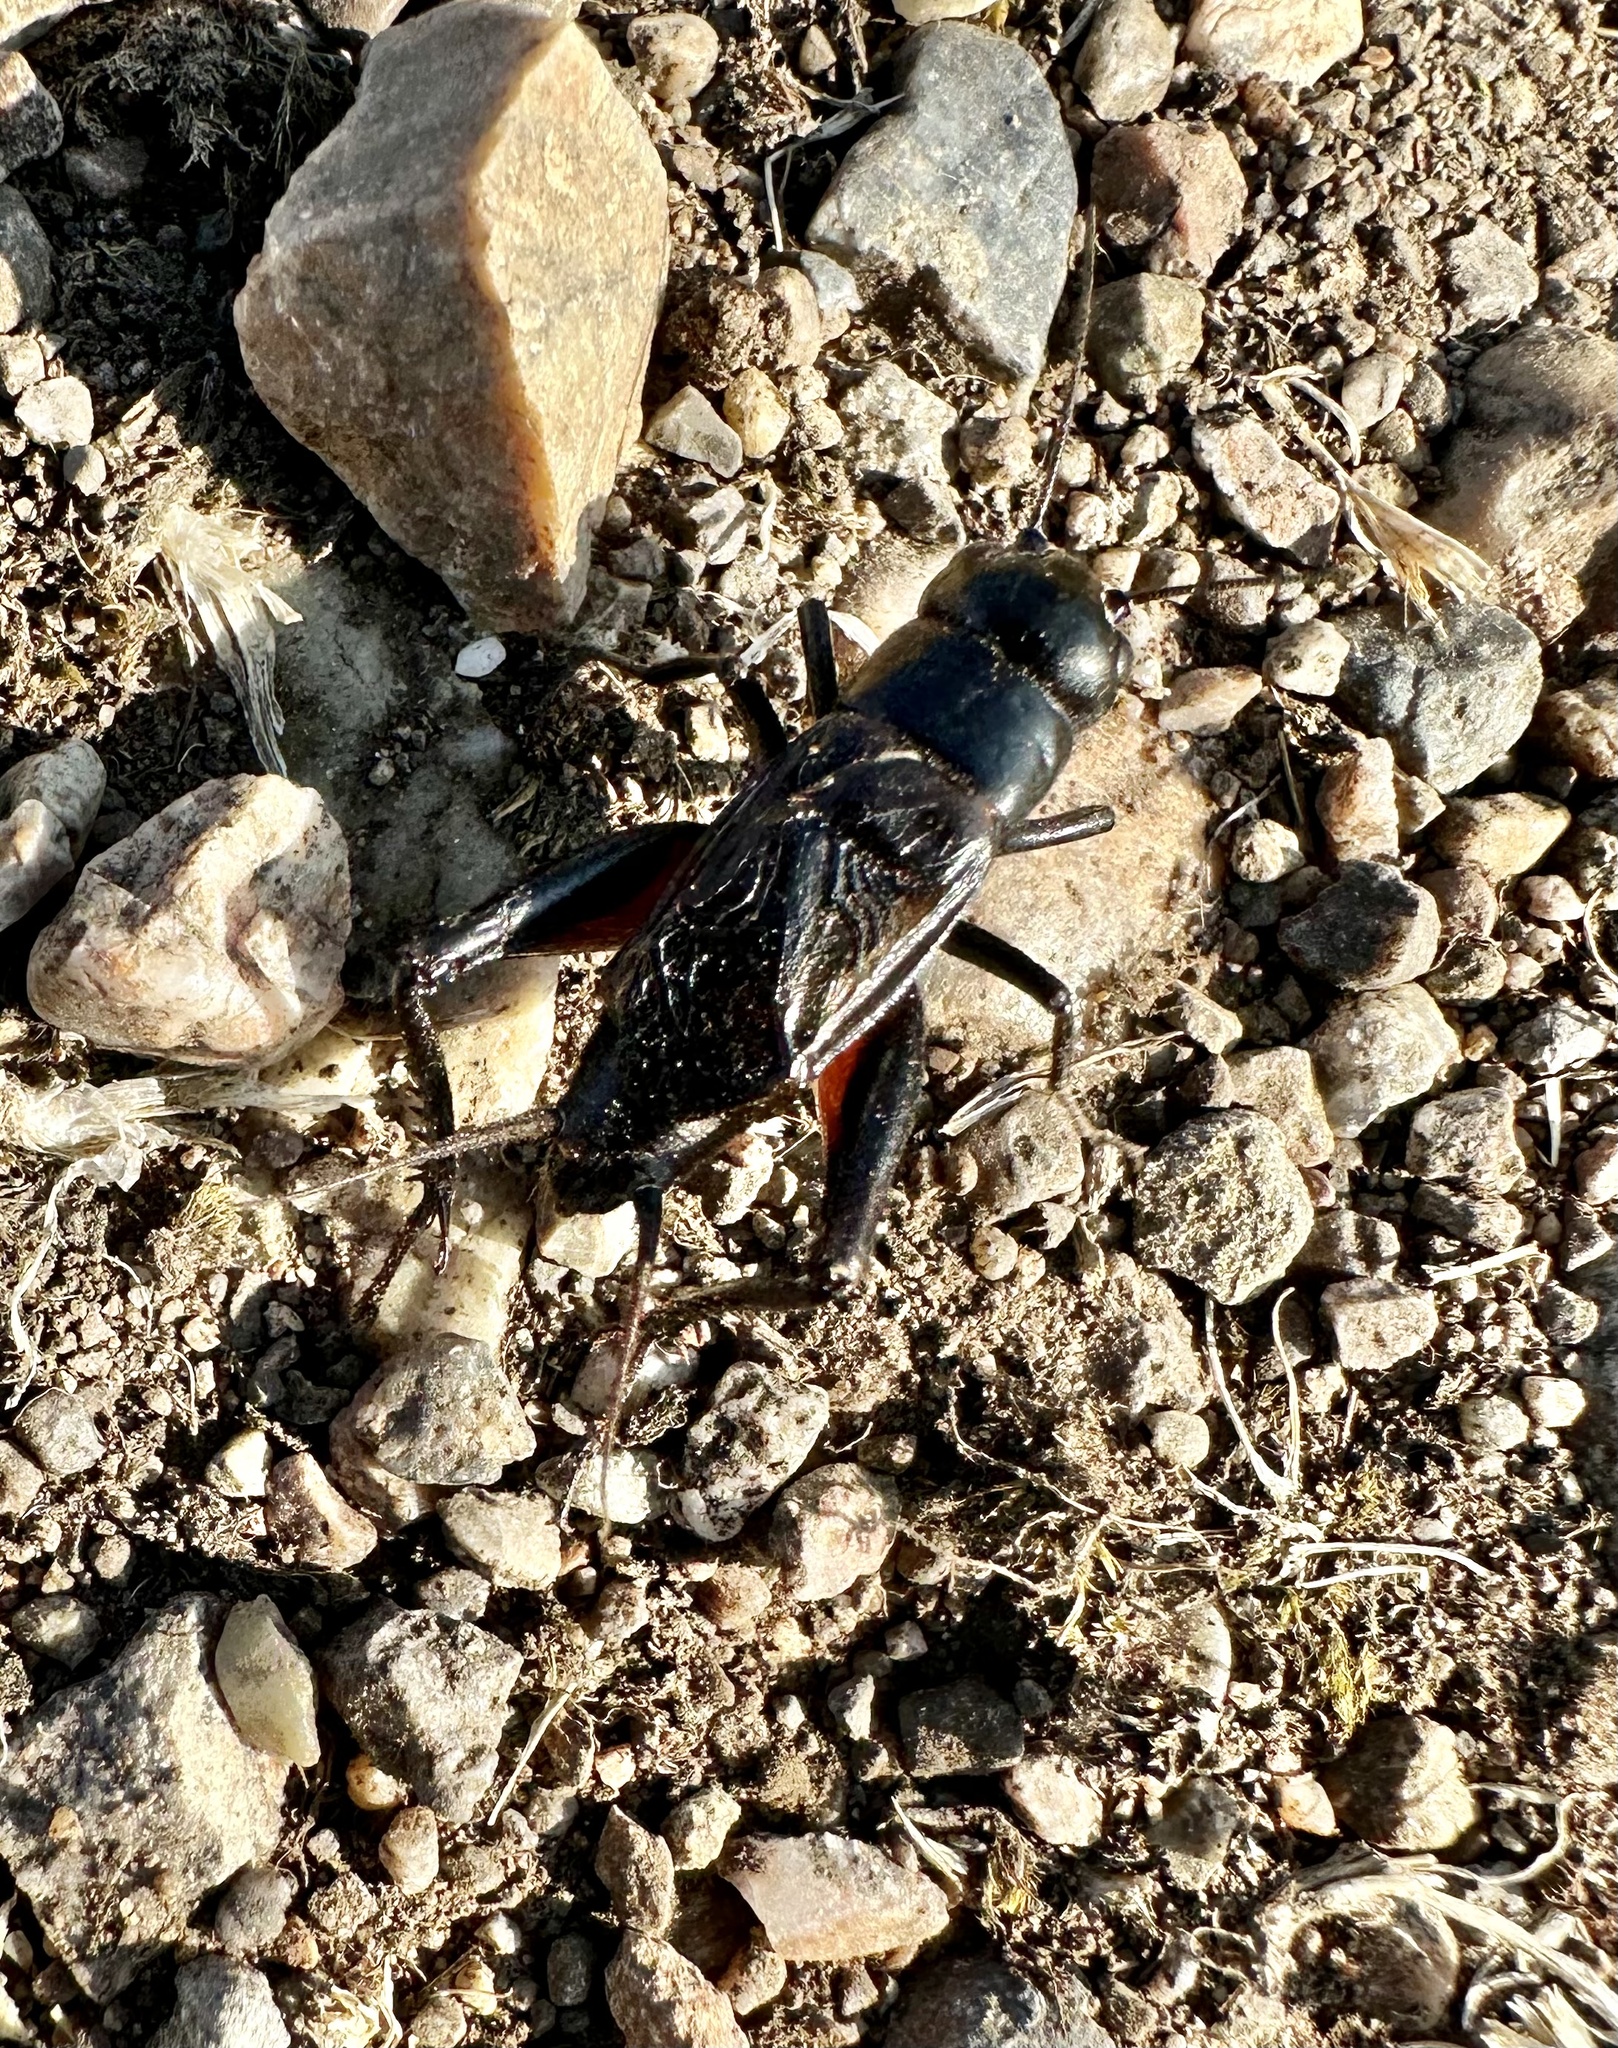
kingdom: Animalia
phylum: Arthropoda
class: Insecta
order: Orthoptera
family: Gryllidae
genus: Gryllus
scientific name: Gryllus pennsylvanicus
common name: Fall field cricket
